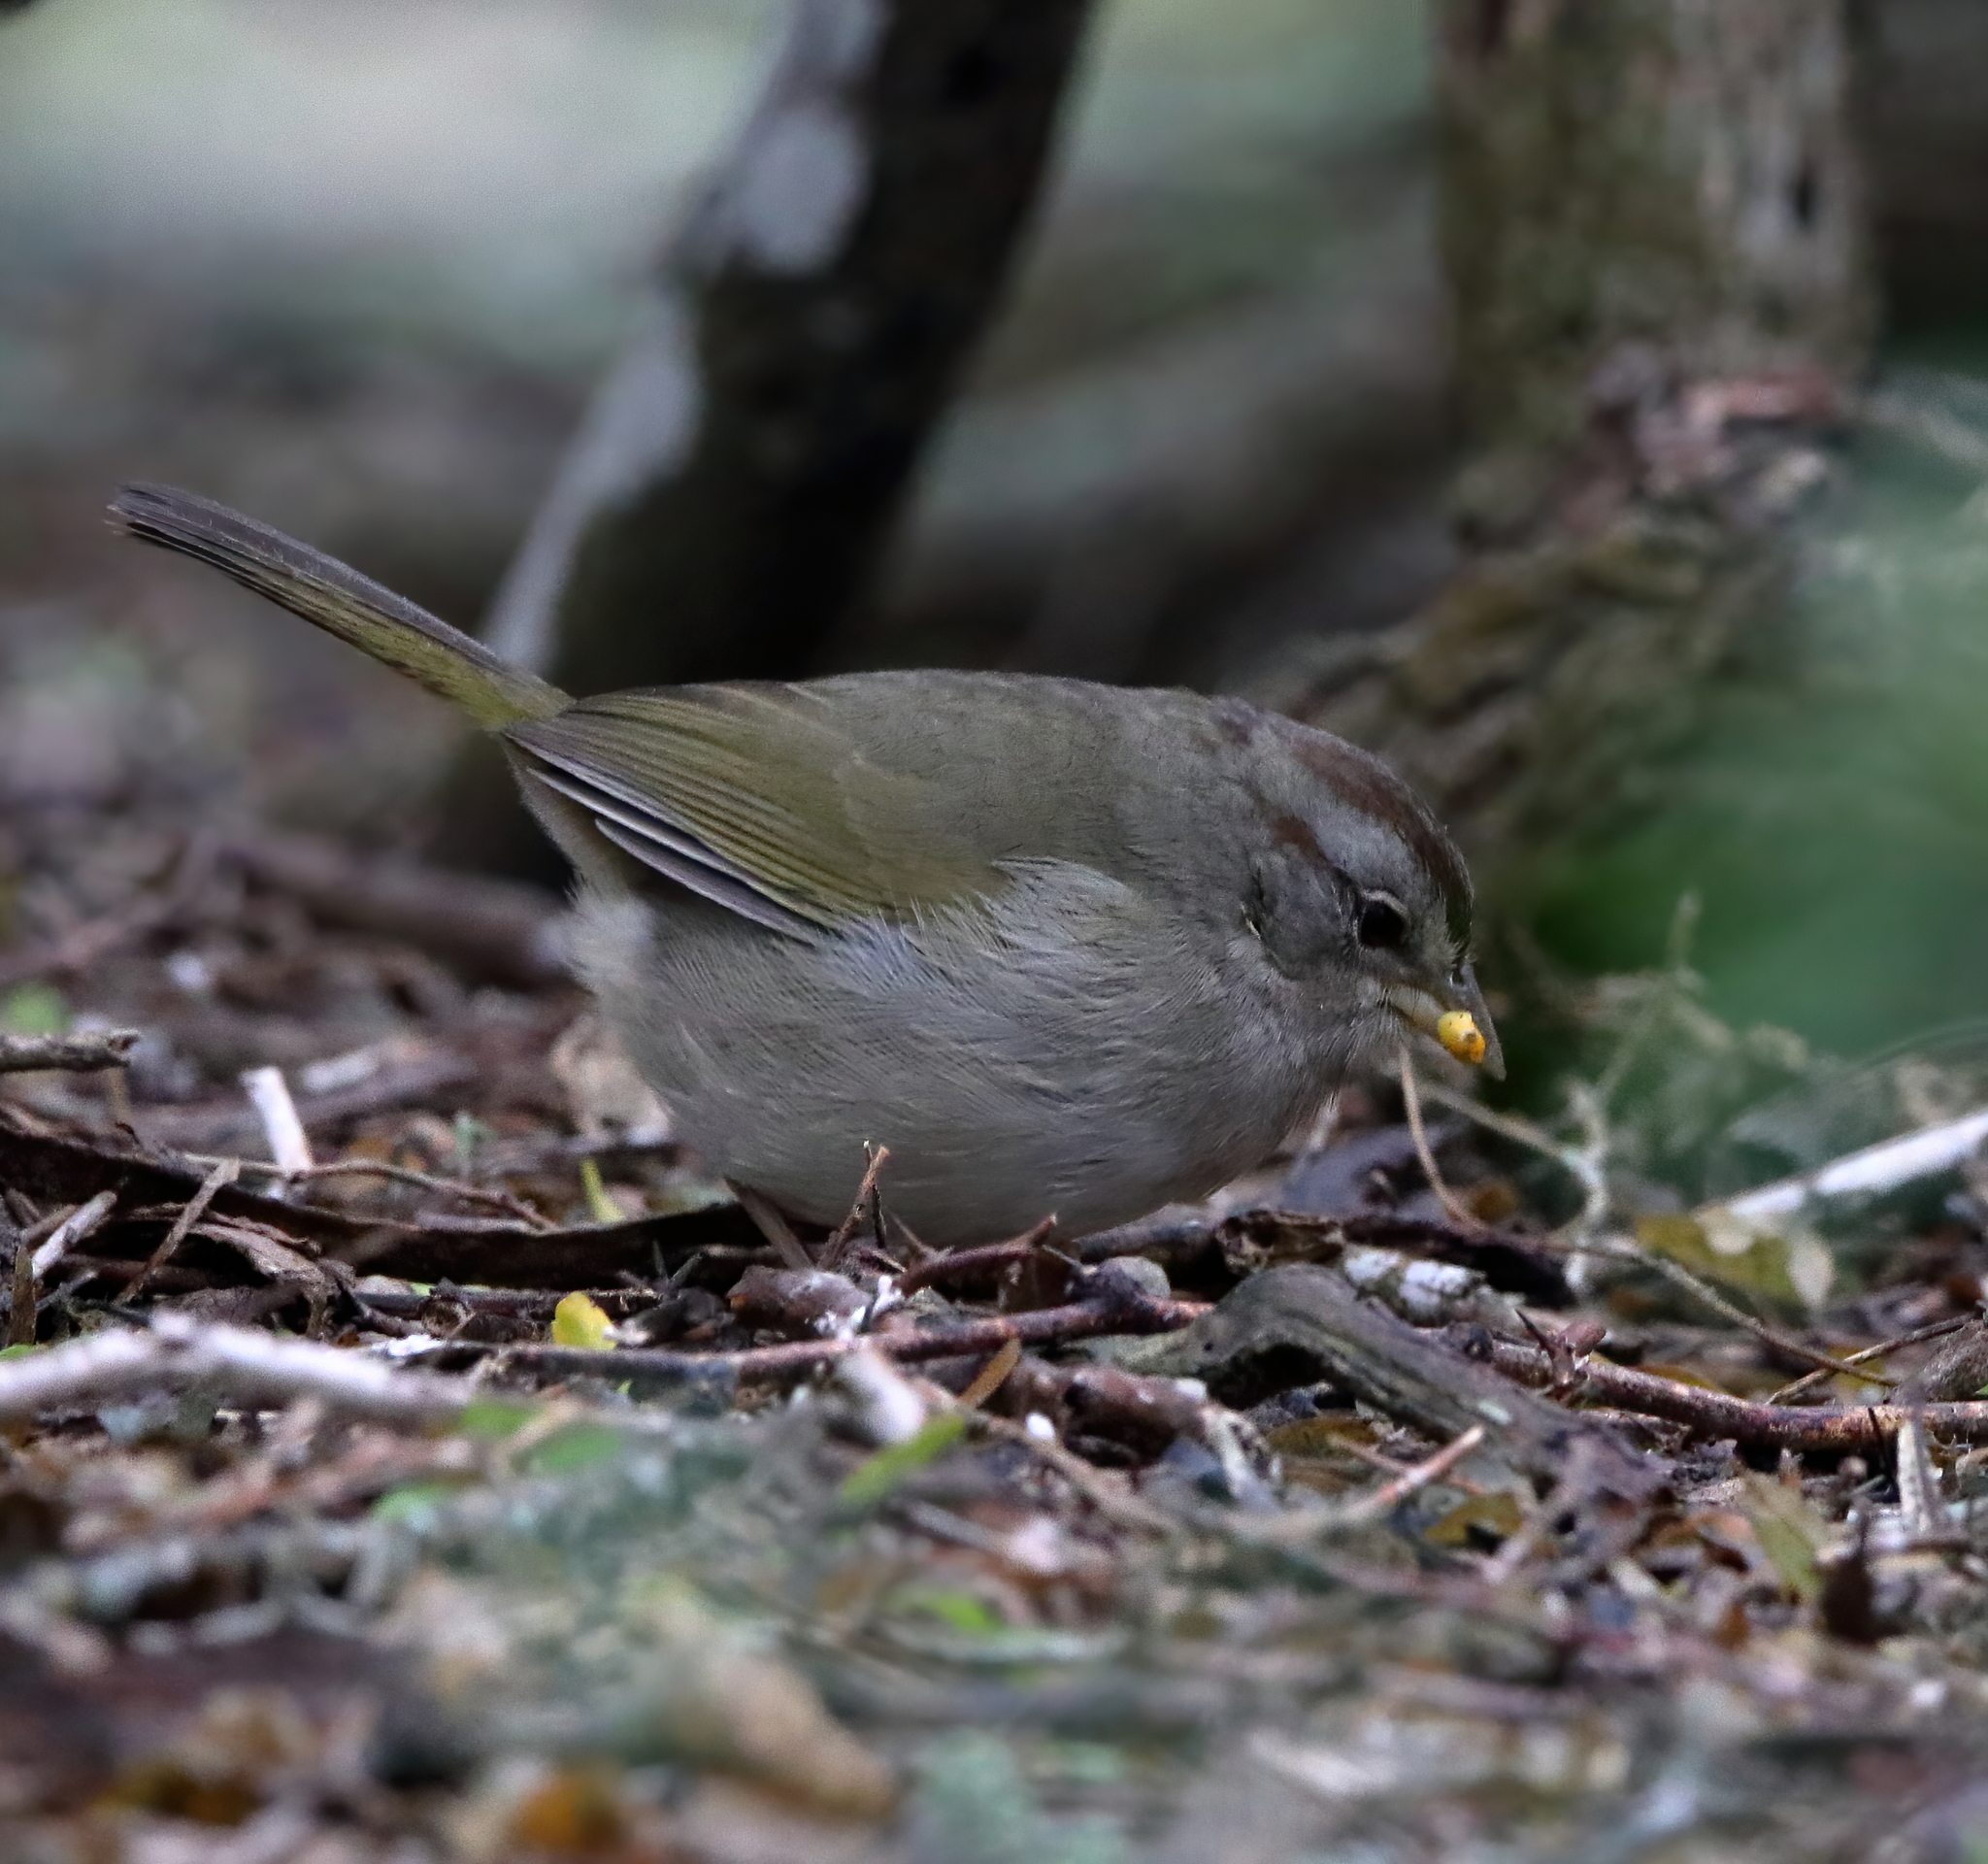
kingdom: Animalia
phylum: Chordata
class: Aves
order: Passeriformes
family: Passerellidae
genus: Arremonops
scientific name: Arremonops rufivirgatus
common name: Olive sparrow
